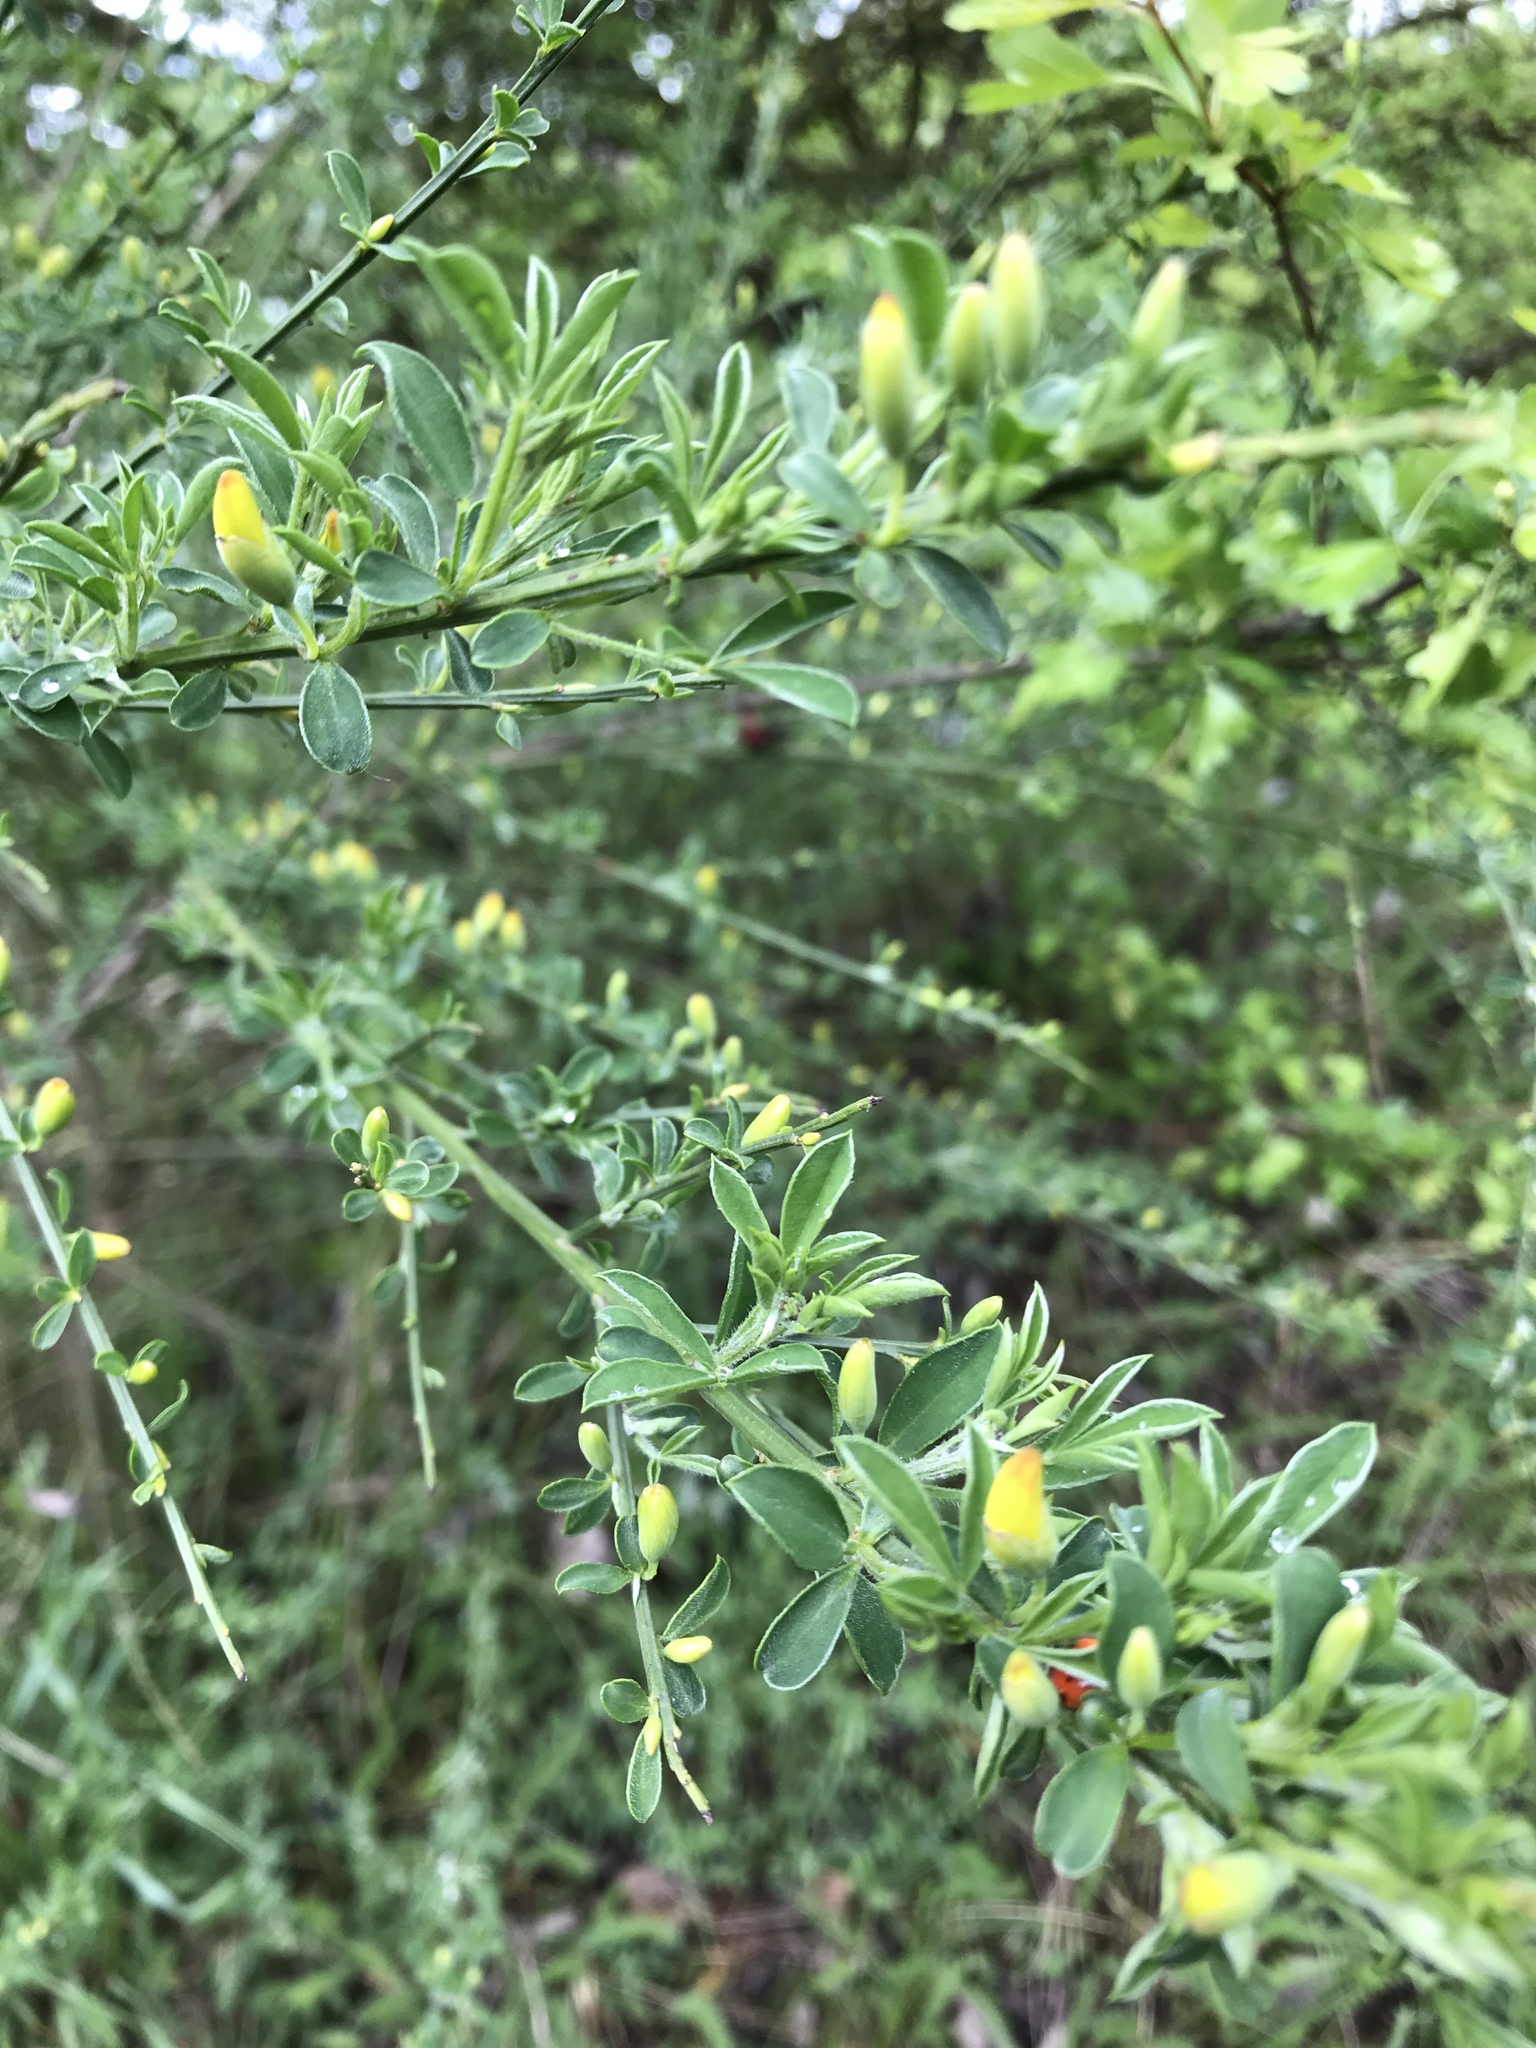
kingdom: Plantae
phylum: Tracheophyta
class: Magnoliopsida
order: Fabales
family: Fabaceae
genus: Cytisus
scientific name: Cytisus scoparius
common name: Scotch broom
